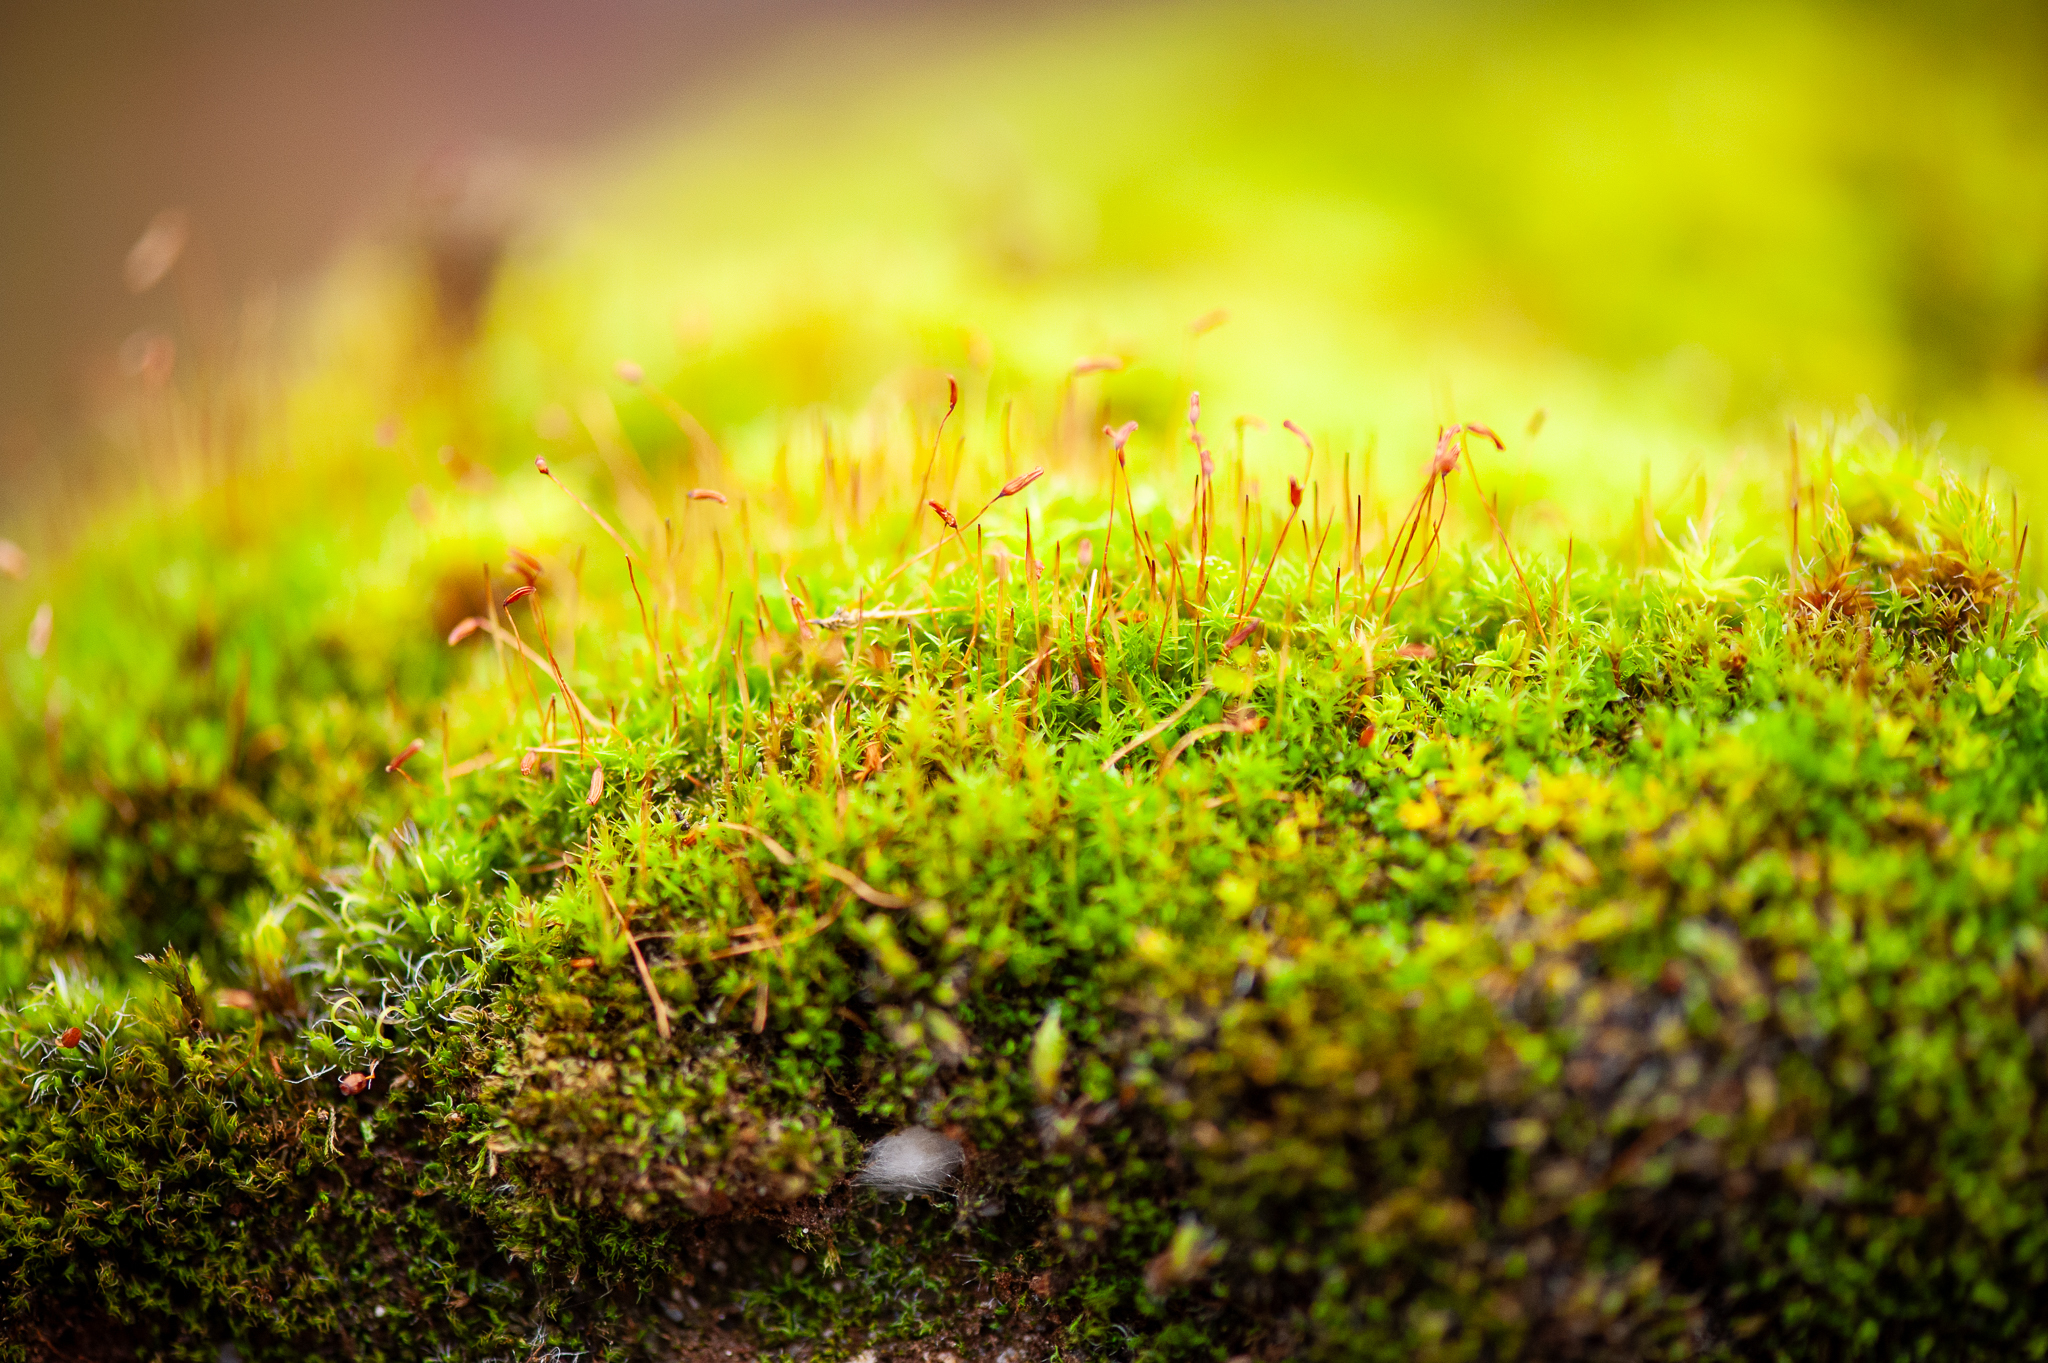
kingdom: Plantae
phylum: Bryophyta
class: Bryopsida
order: Dicranales
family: Ditrichaceae
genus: Ceratodon
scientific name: Ceratodon purpureus
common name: Redshank
